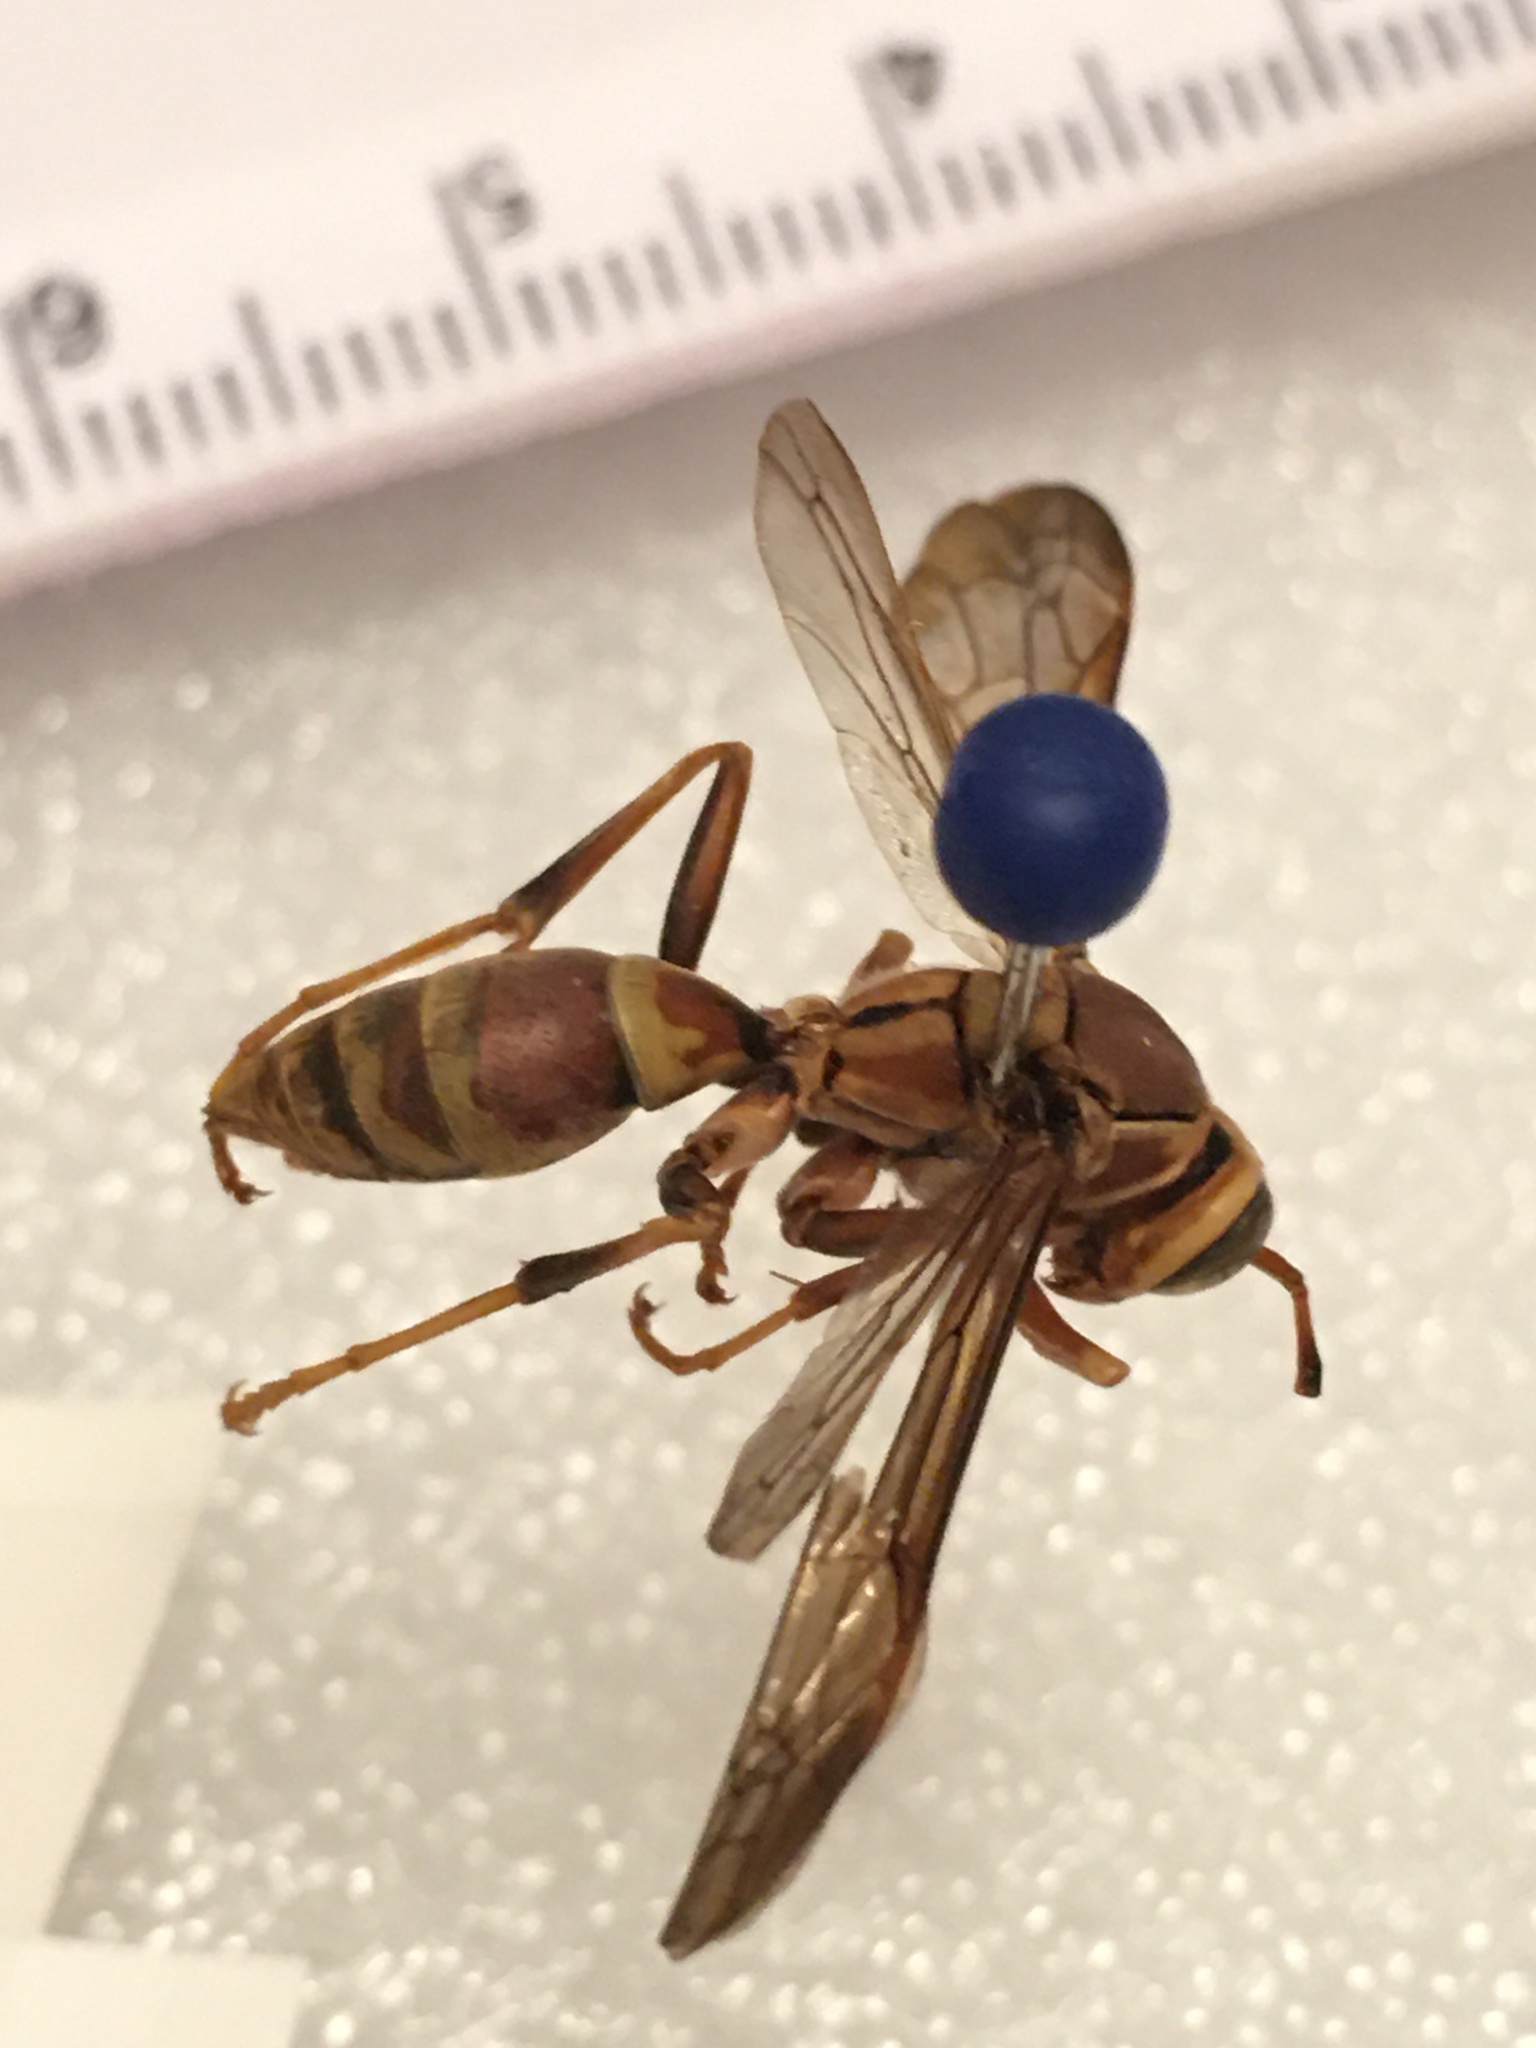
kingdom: Animalia
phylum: Arthropoda
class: Insecta
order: Hymenoptera
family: Eumenidae
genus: Polistes
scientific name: Polistes exclamans
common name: Paper wasp
